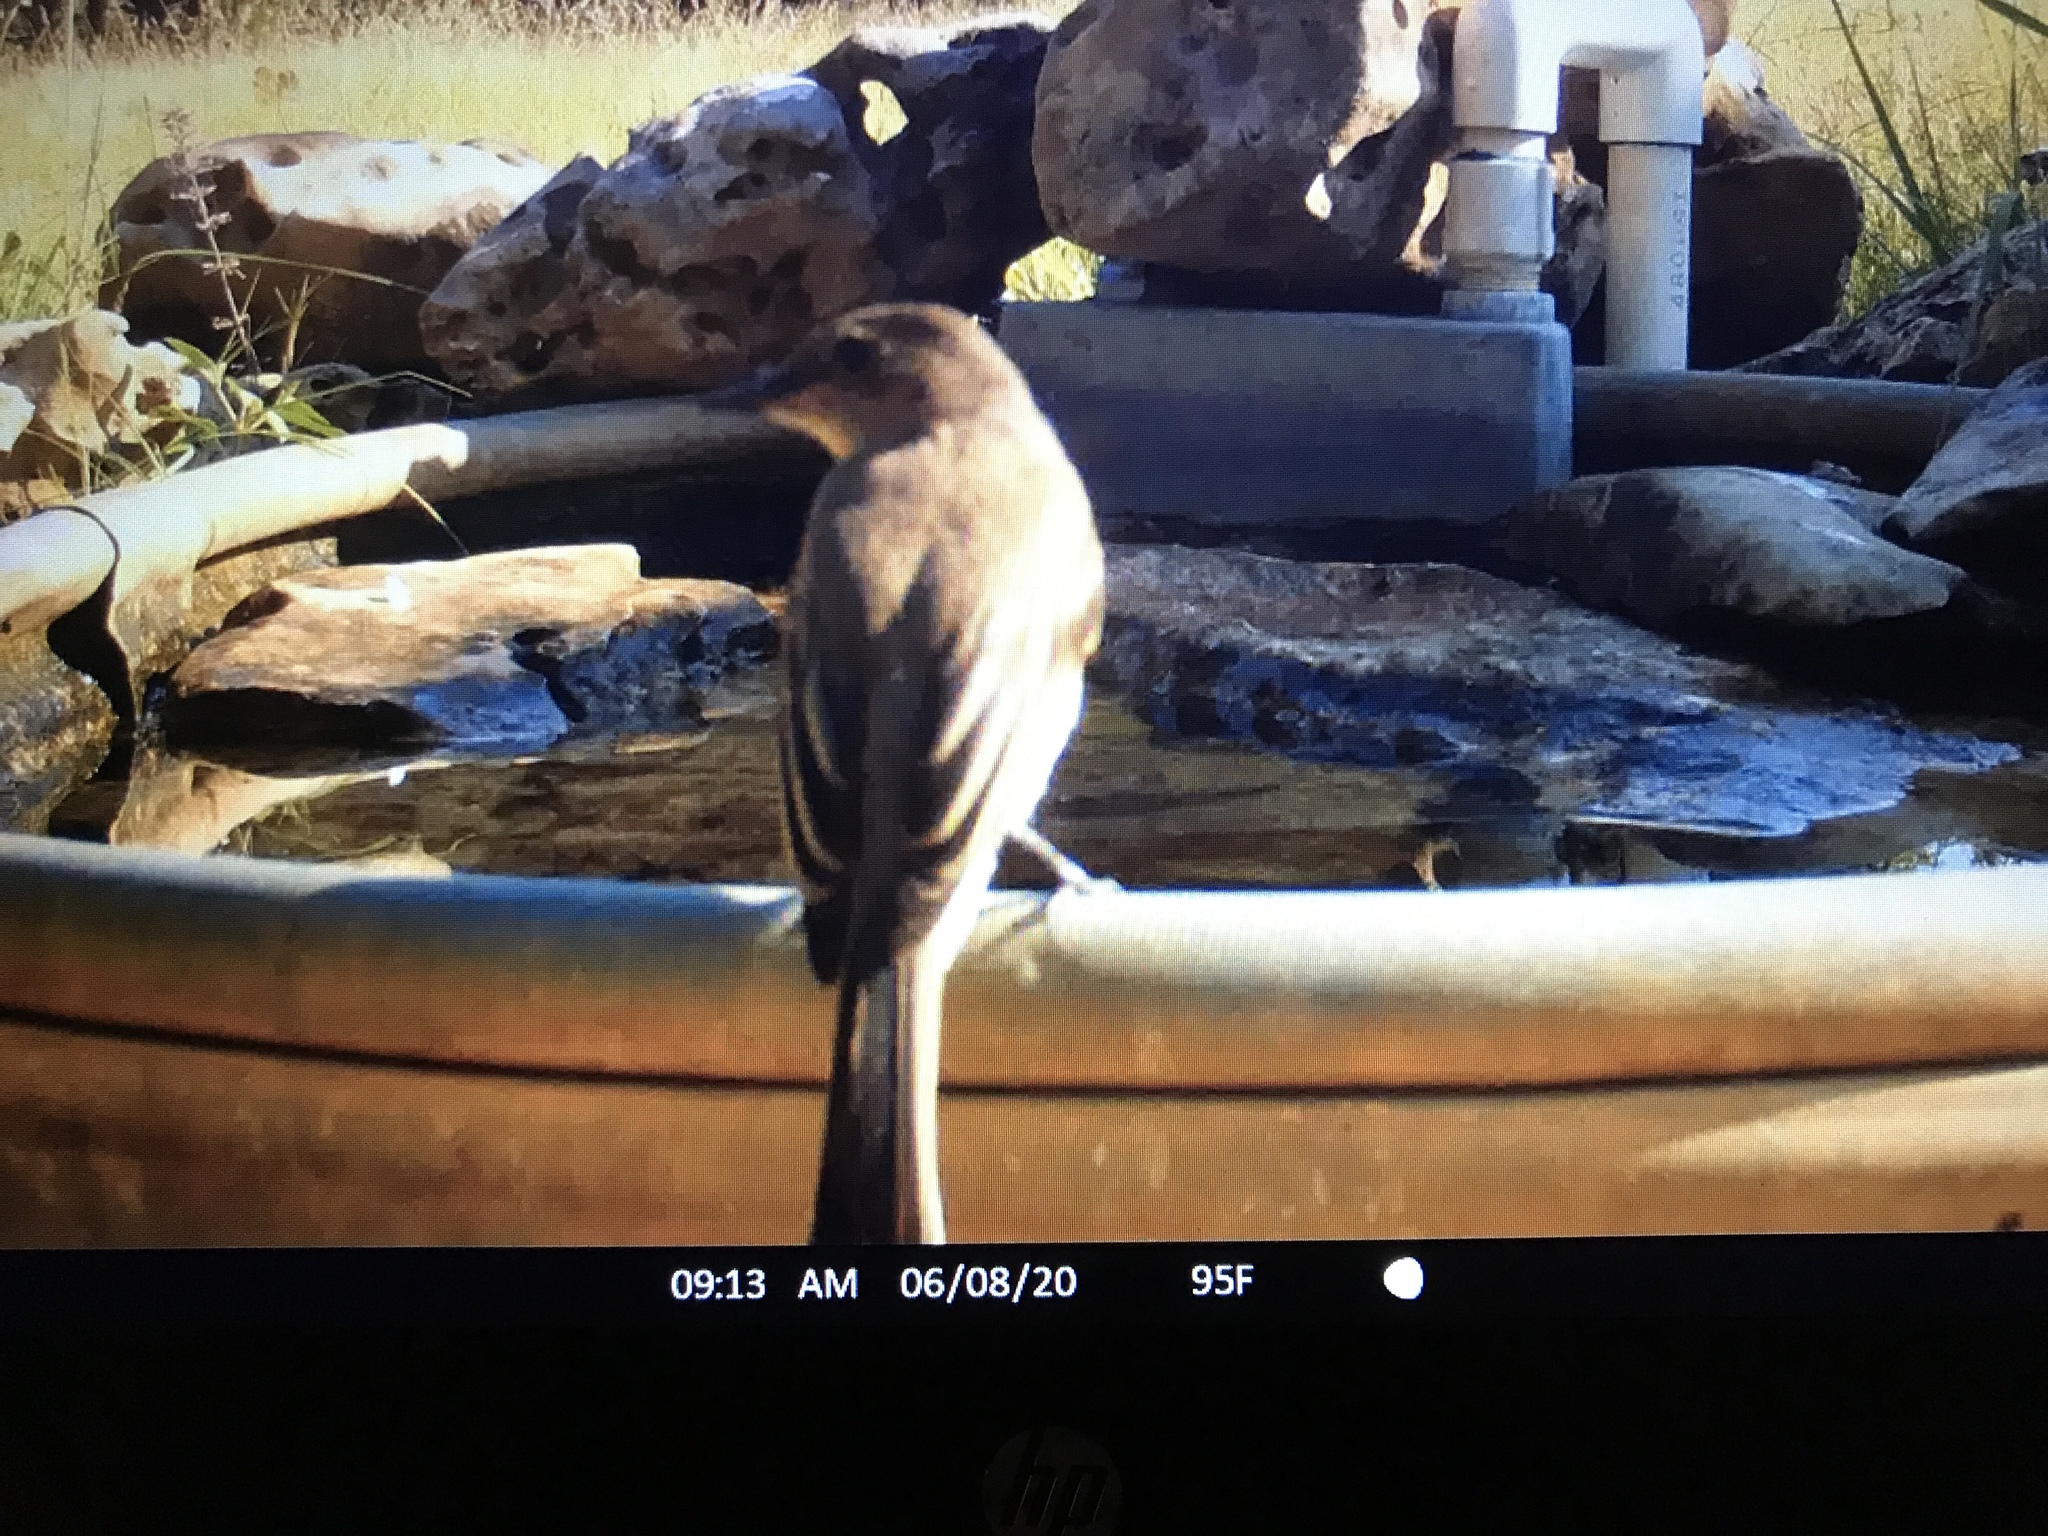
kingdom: Animalia
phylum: Chordata
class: Aves
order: Passeriformes
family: Tyrannidae
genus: Sayornis
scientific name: Sayornis phoebe
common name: Eastern phoebe
